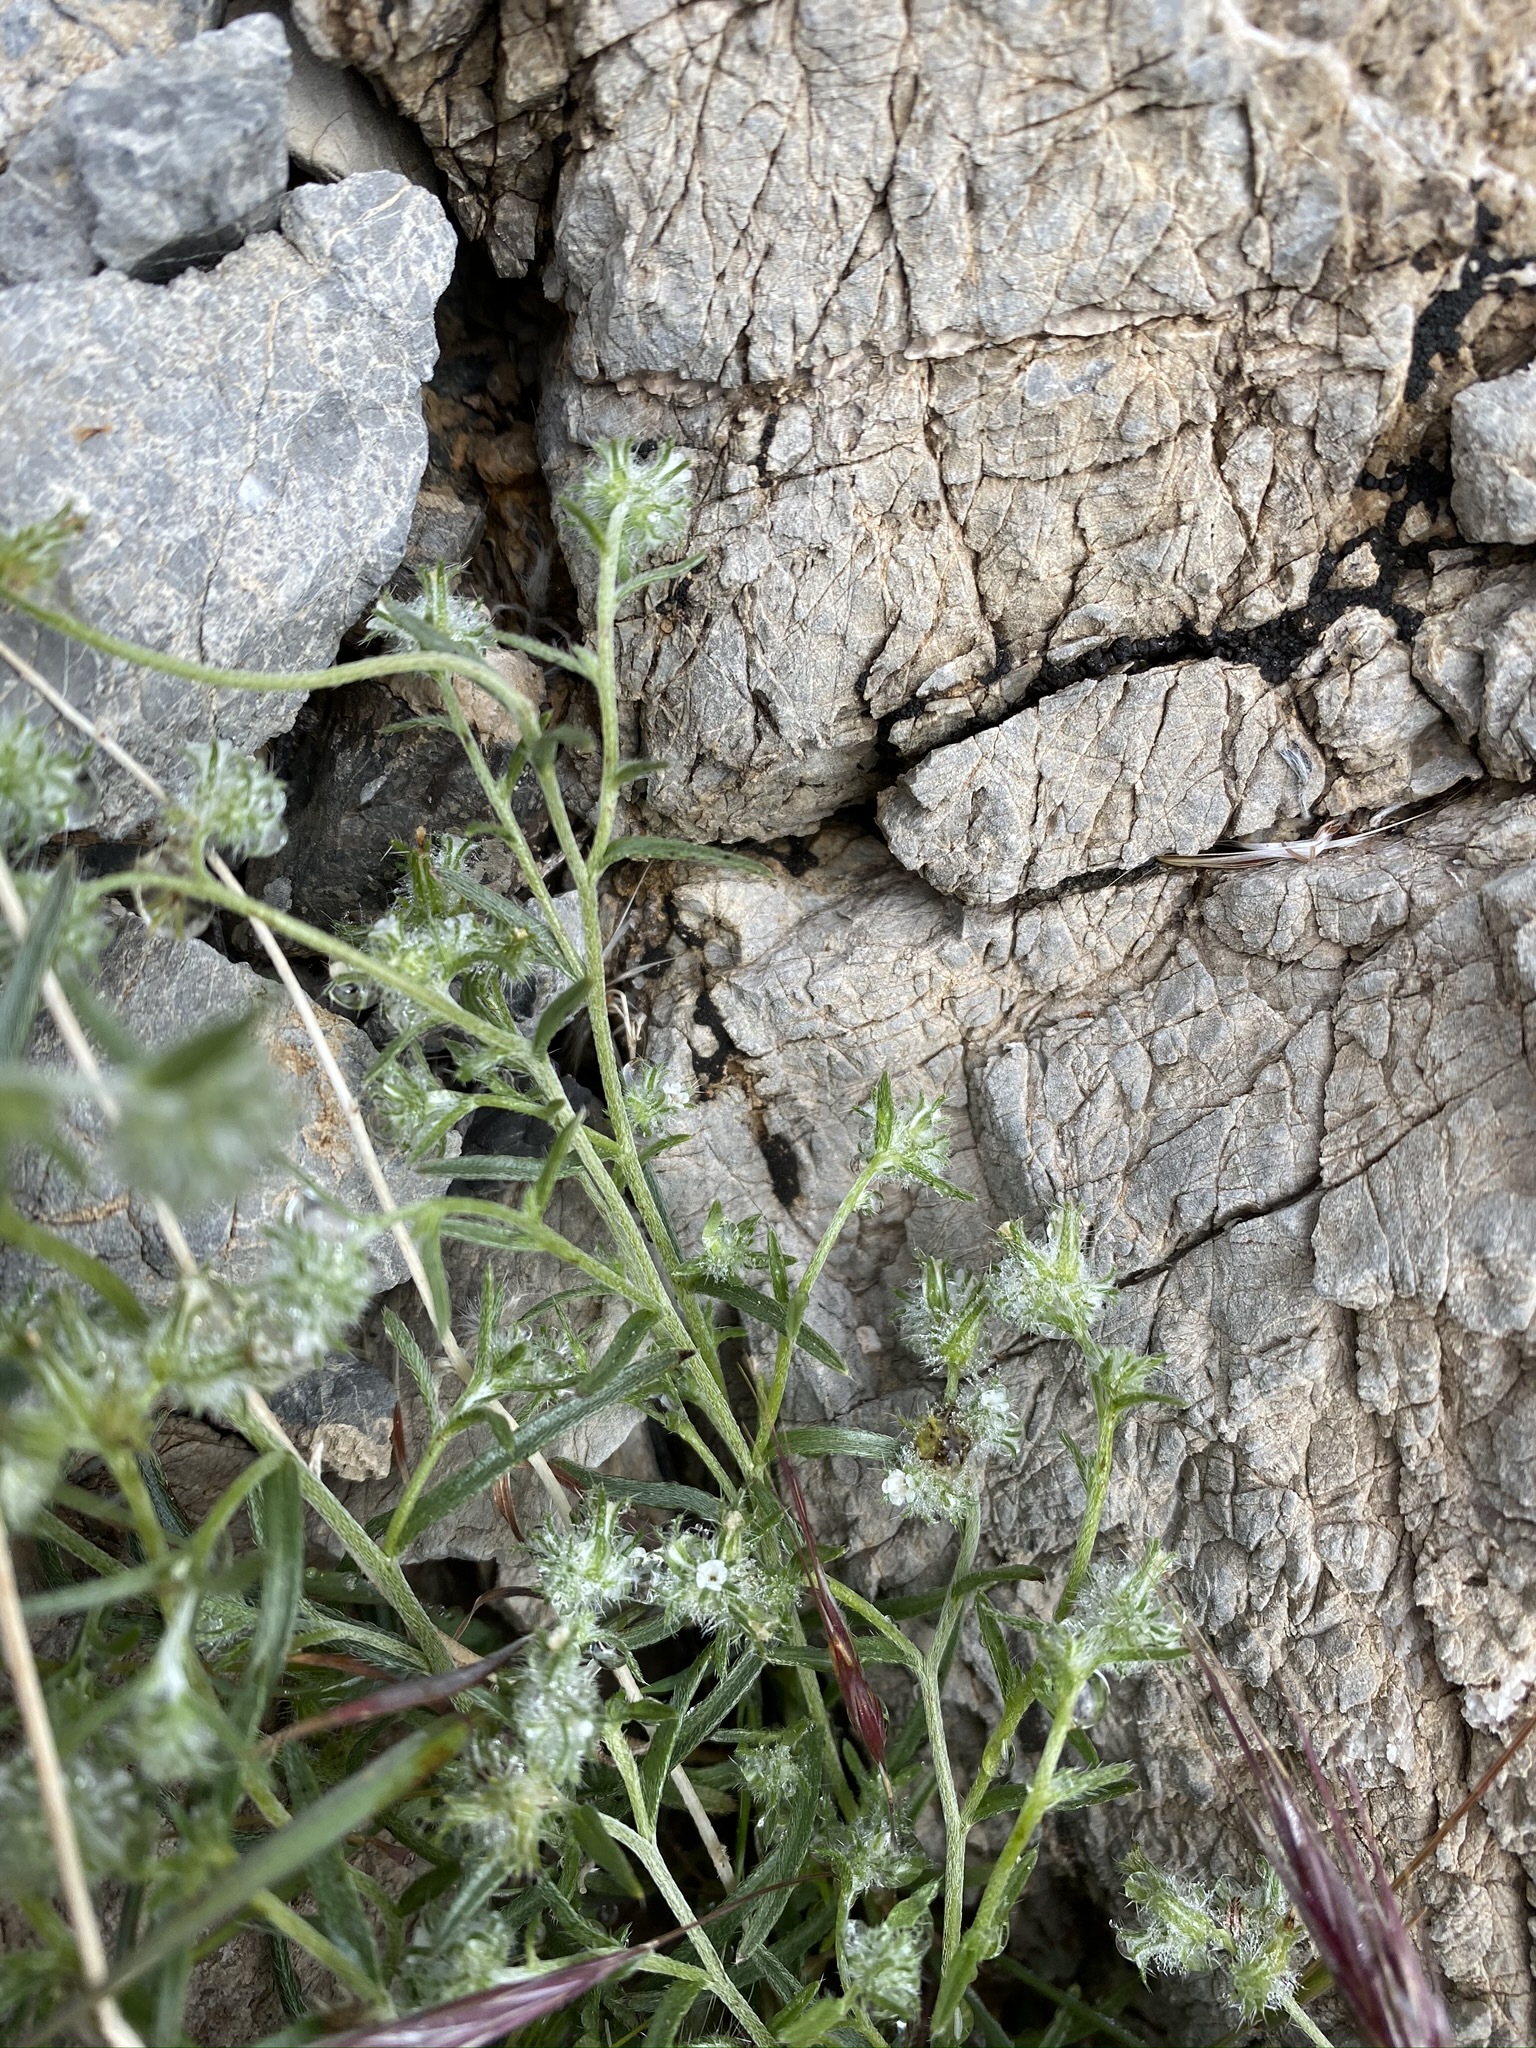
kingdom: Plantae
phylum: Tracheophyta
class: Magnoliopsida
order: Boraginales
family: Boraginaceae
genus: Cryptantha
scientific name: Cryptantha nevadensis
